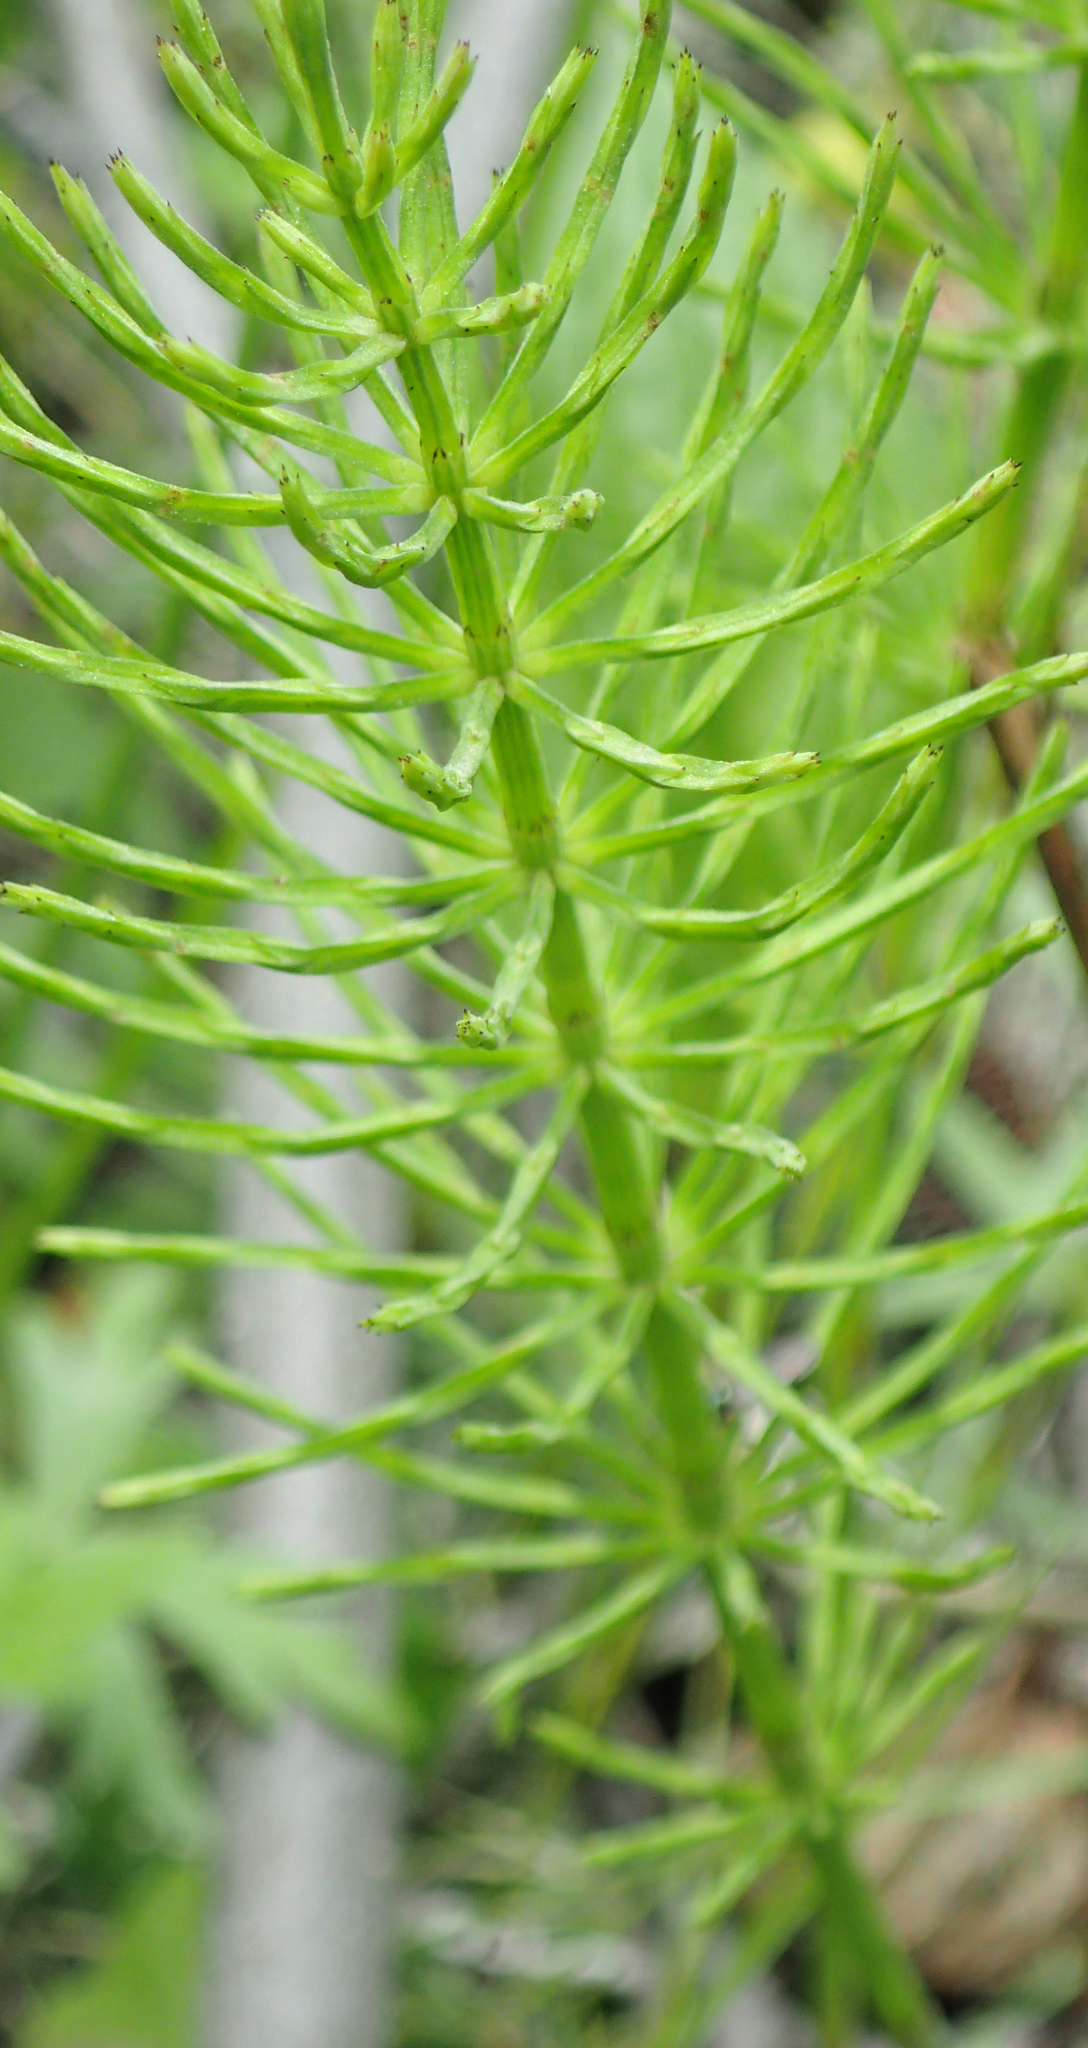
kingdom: Plantae
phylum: Tracheophyta
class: Polypodiopsida
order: Equisetales
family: Equisetaceae
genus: Equisetum
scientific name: Equisetum arvense
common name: Field horsetail
